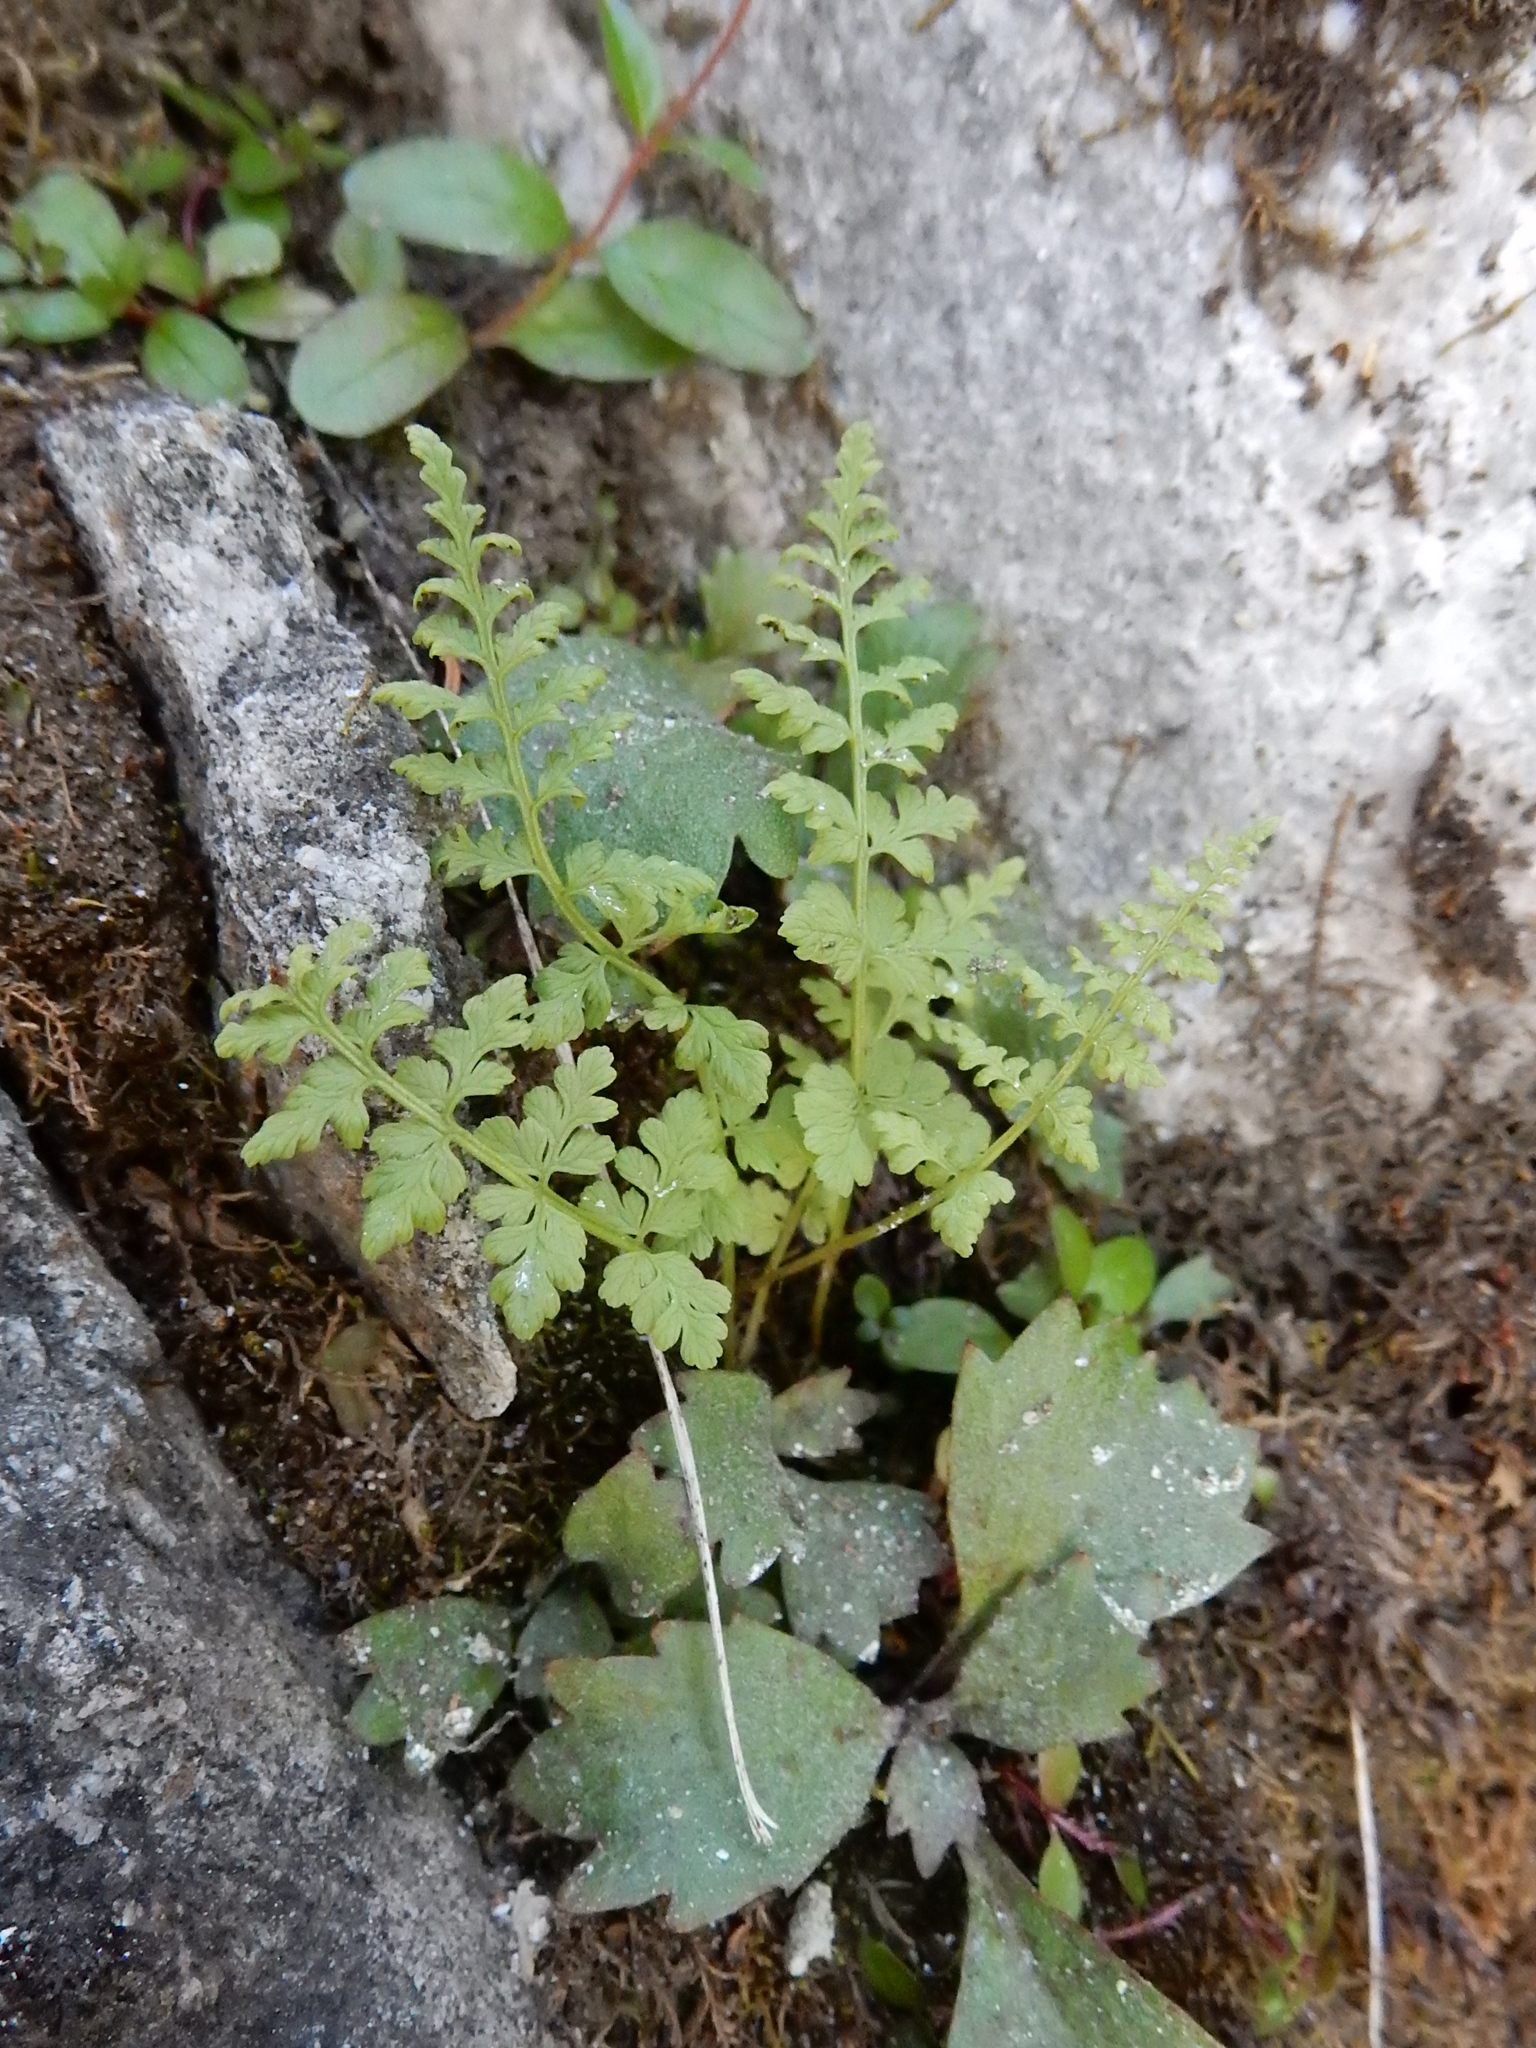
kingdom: Plantae
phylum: Tracheophyta
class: Polypodiopsida
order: Polypodiales
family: Cystopteridaceae
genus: Cystopteris
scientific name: Cystopteris fragilis
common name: Brittle bladder fern
